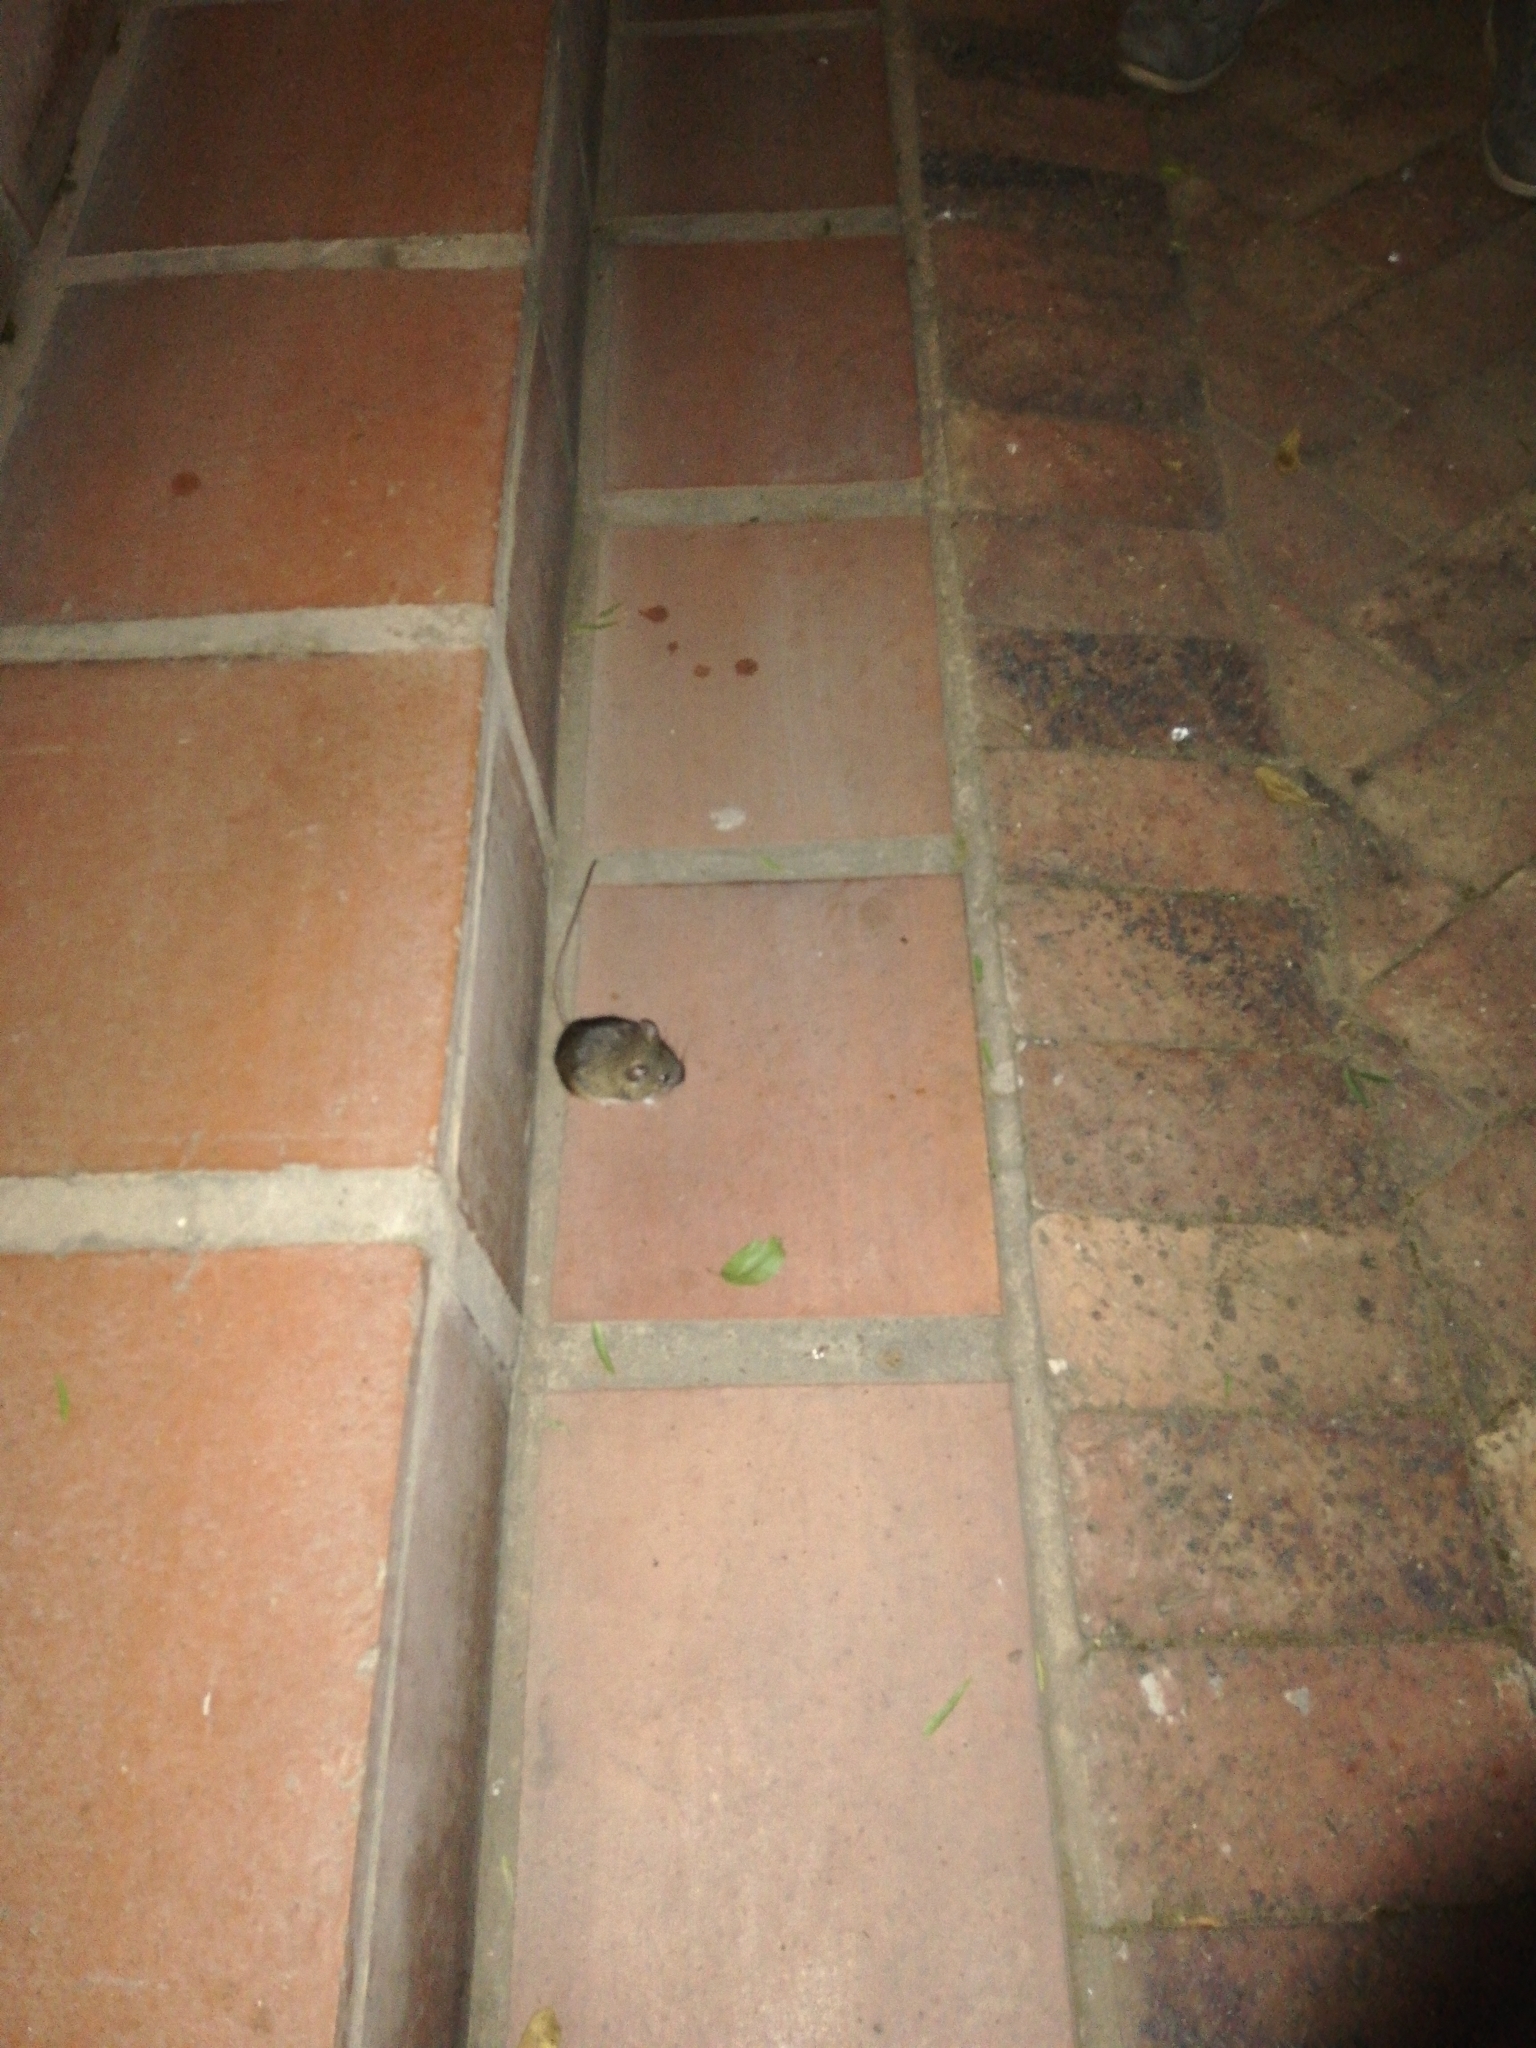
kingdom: Animalia
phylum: Chordata
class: Mammalia
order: Rodentia
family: Muridae
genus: Micaelamys
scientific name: Micaelamys namaquensis
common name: Namaqua micaelamys
